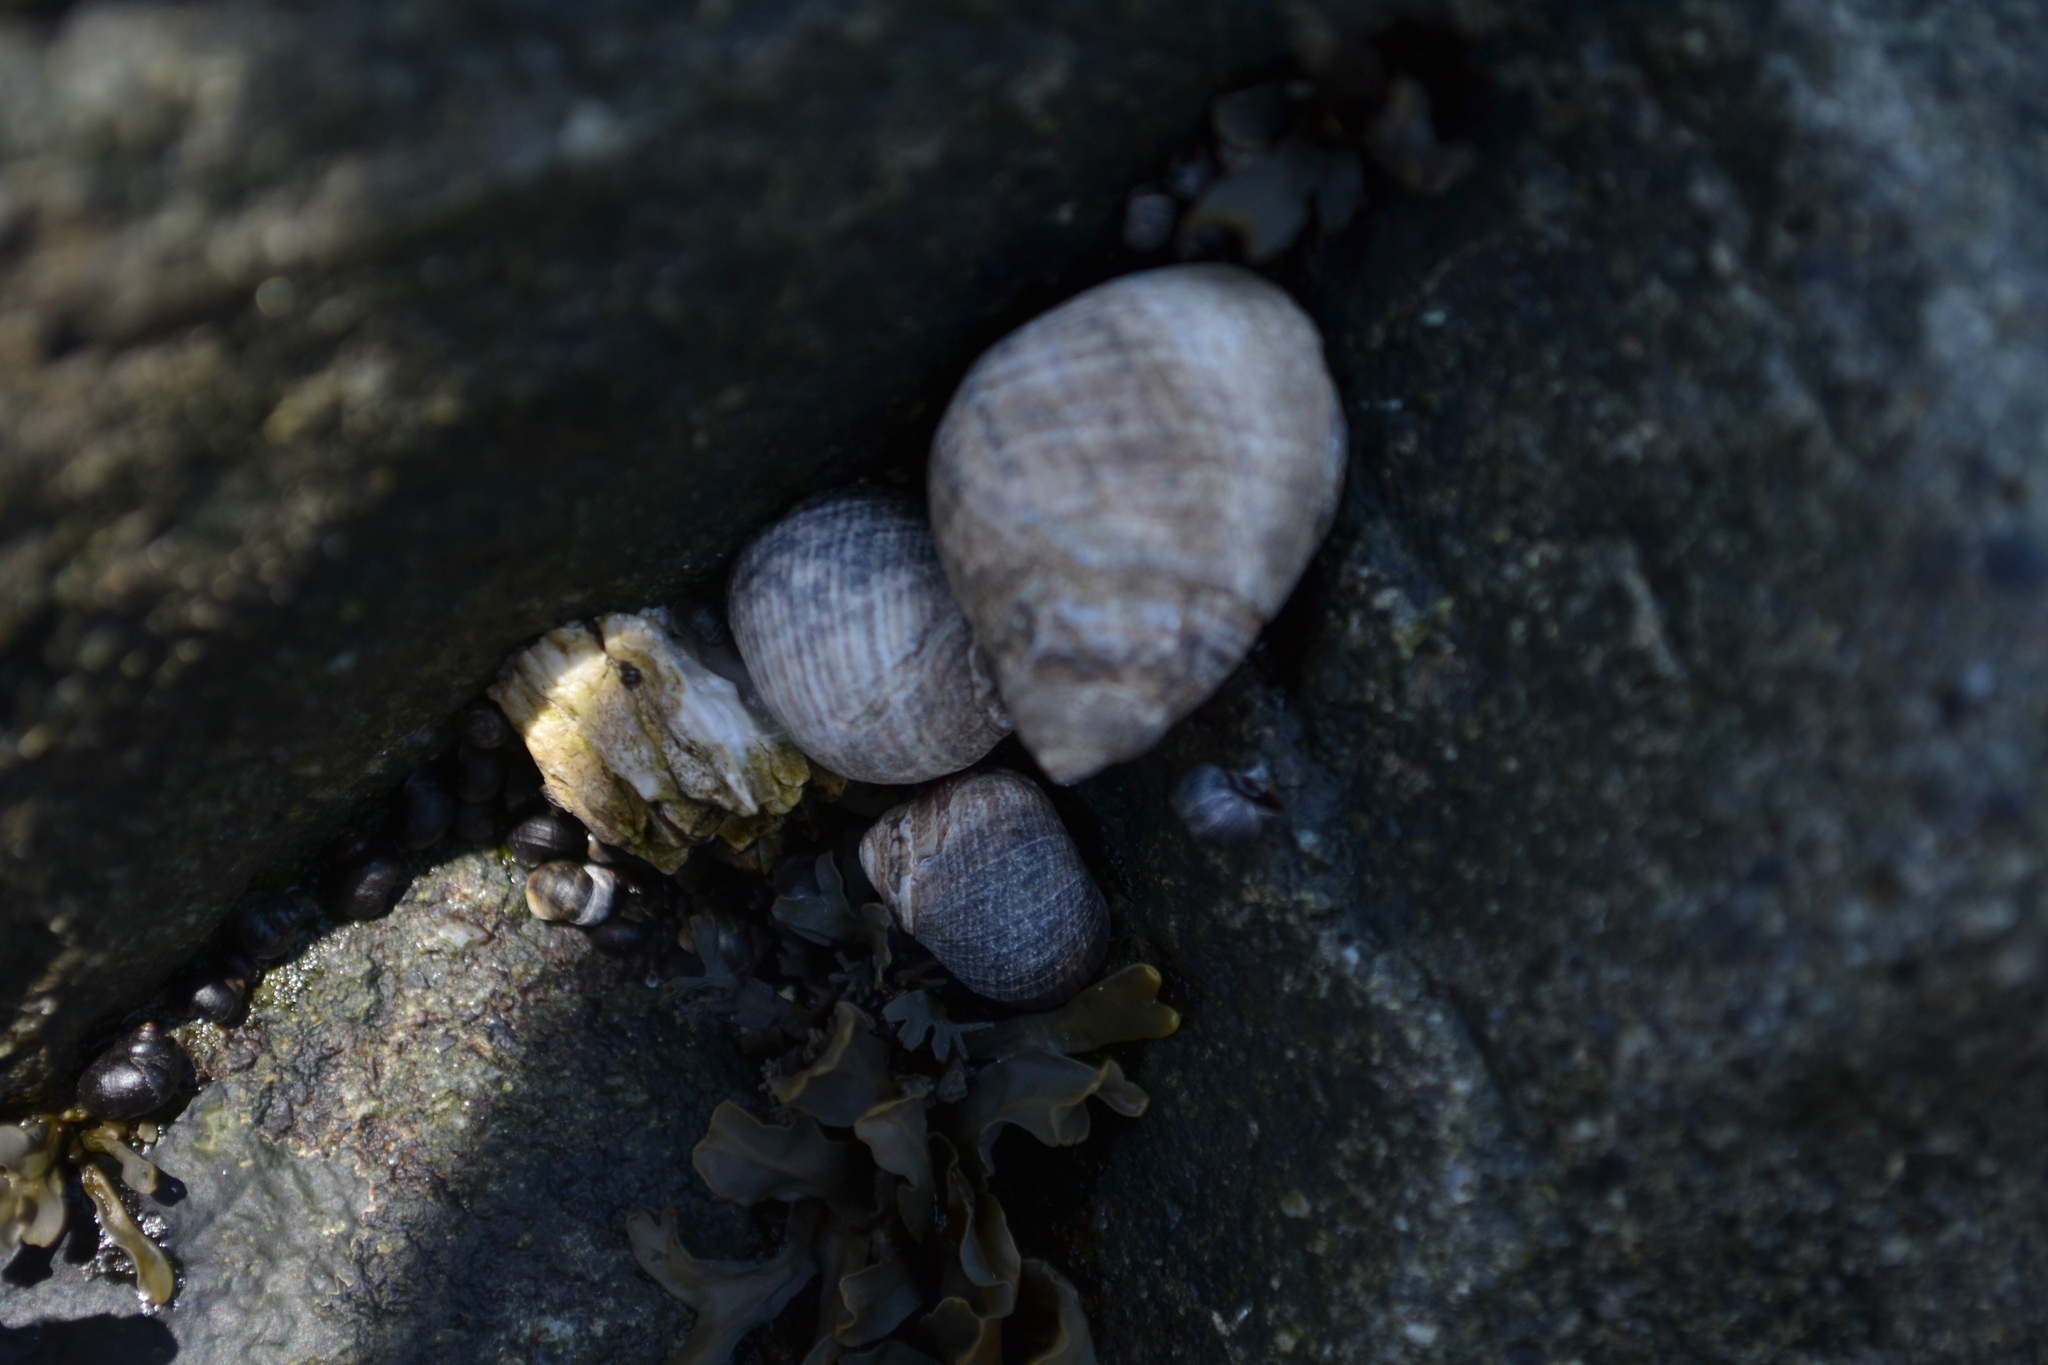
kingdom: Animalia
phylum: Mollusca
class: Gastropoda
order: Littorinimorpha
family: Littorinidae
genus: Littorina
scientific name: Littorina littorea
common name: Common periwinkle
